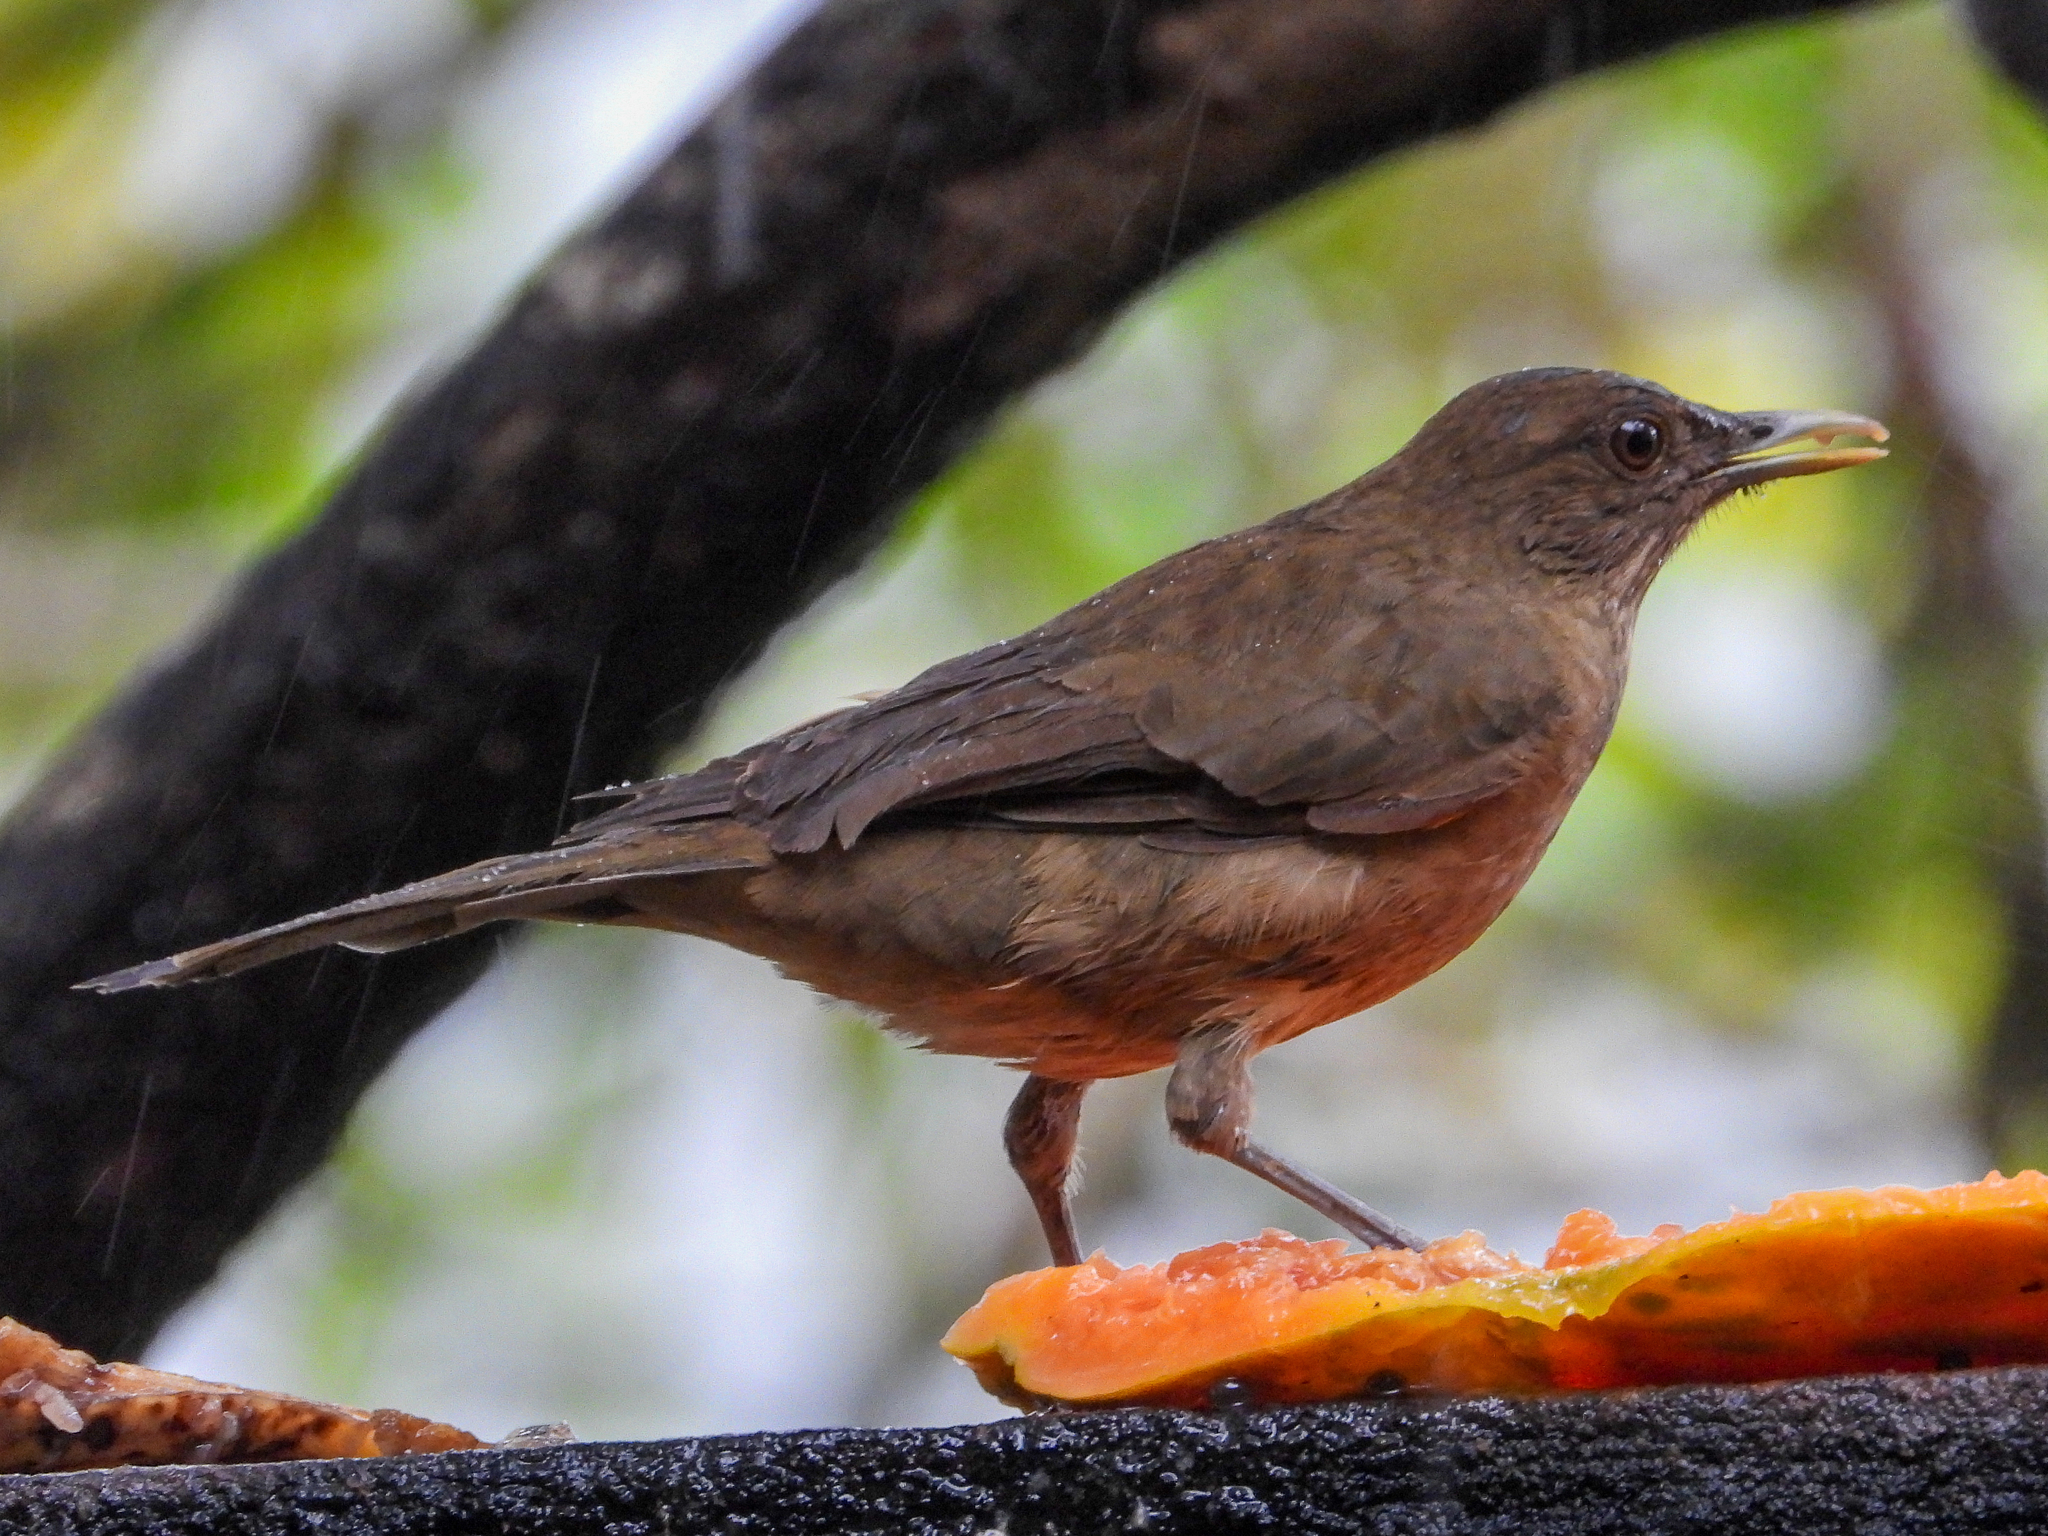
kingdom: Animalia
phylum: Chordata
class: Aves
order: Passeriformes
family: Turdidae
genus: Turdus
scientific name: Turdus grayi
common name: Clay-colored thrush
